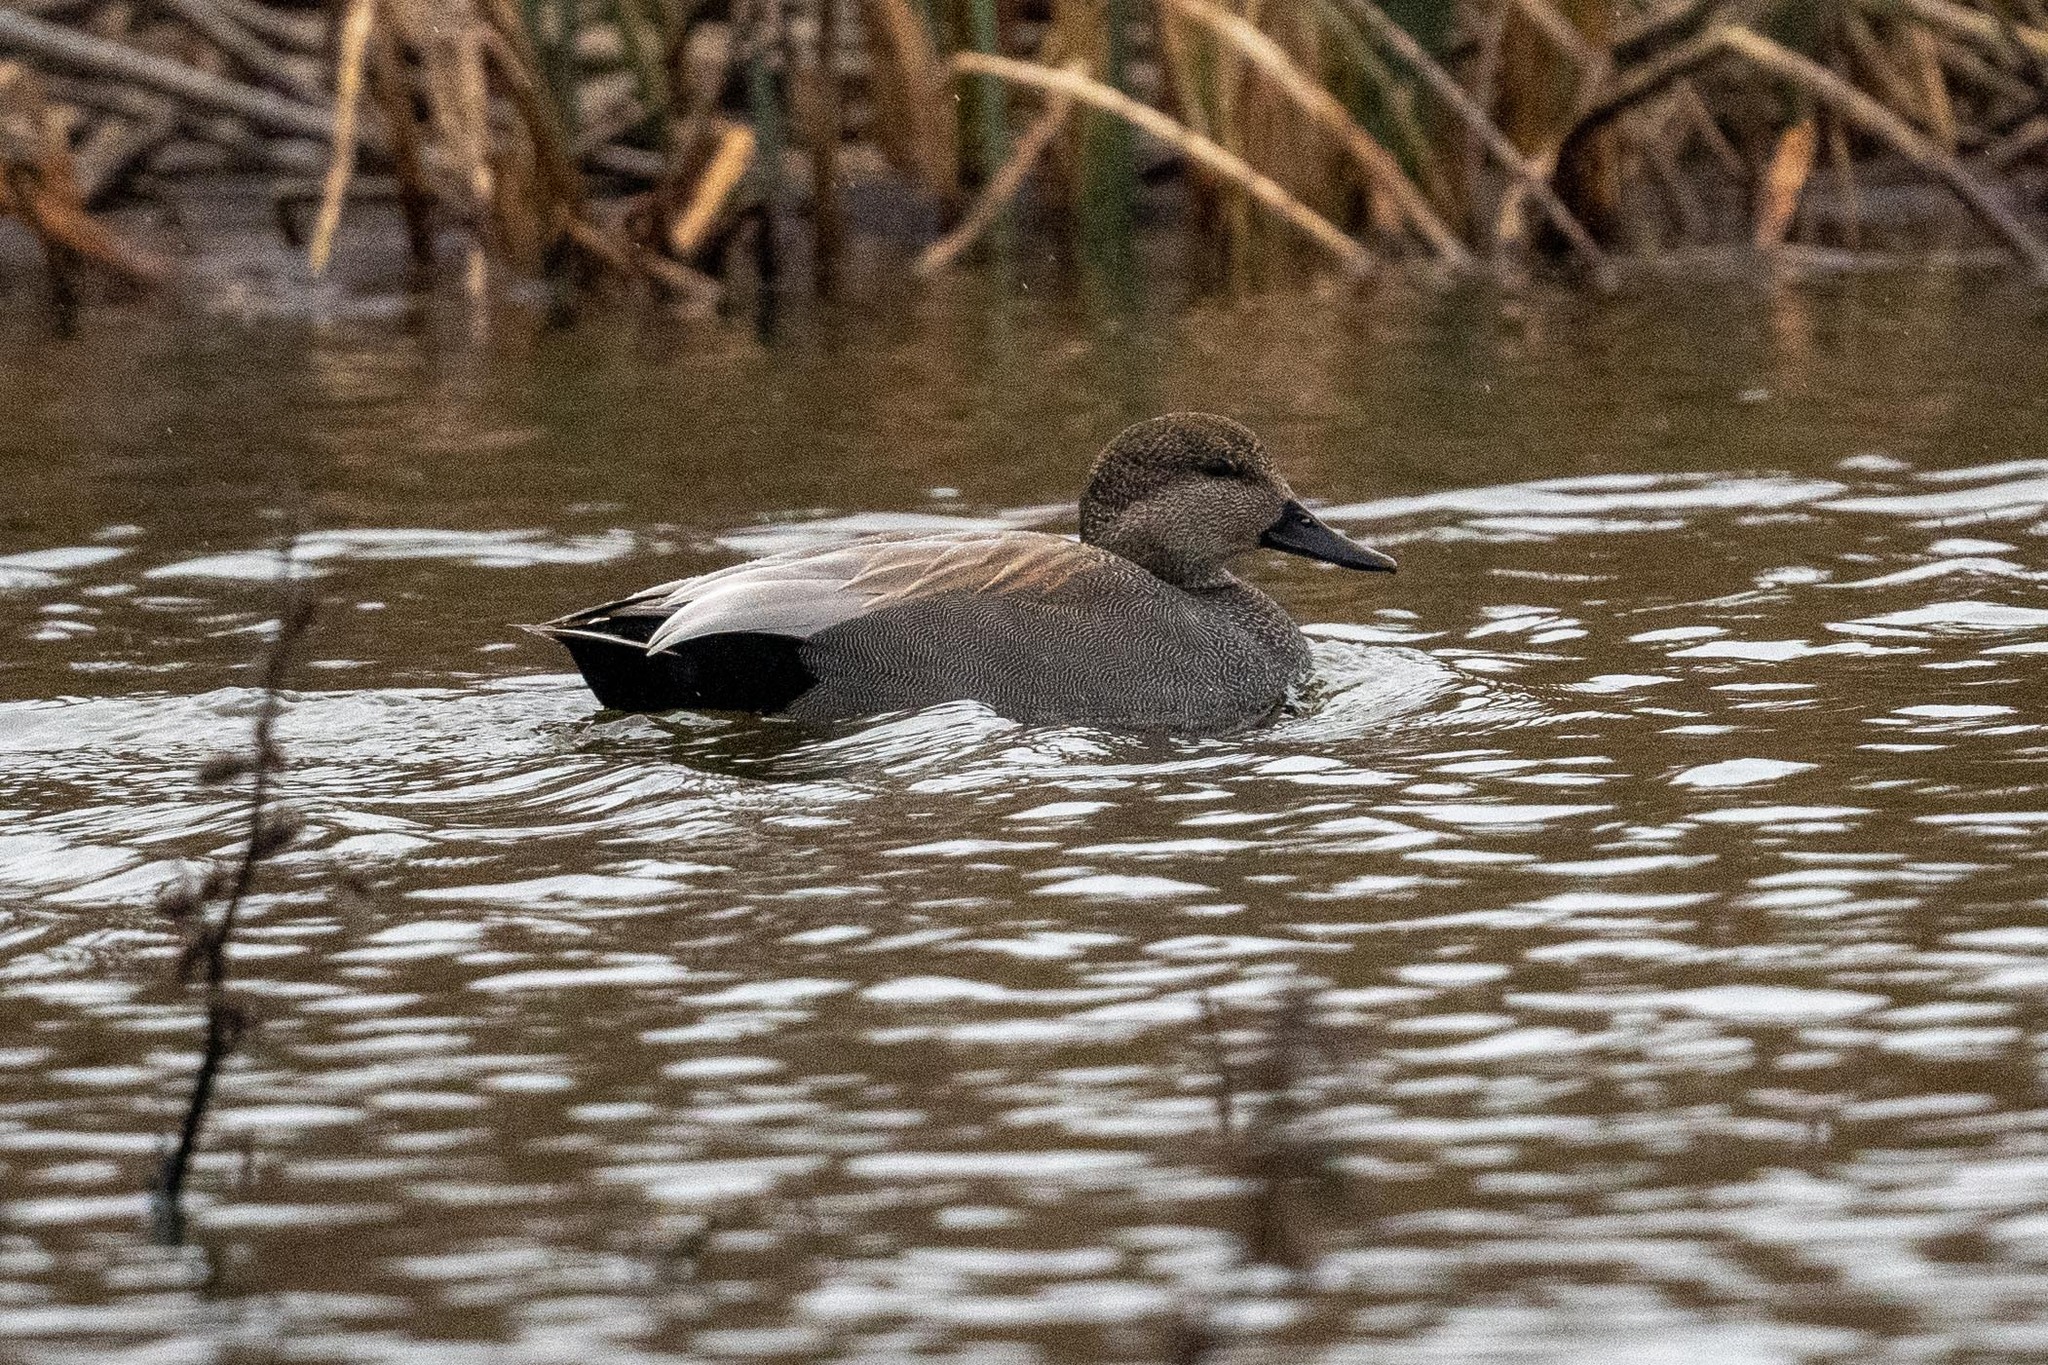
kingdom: Animalia
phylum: Chordata
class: Aves
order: Anseriformes
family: Anatidae
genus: Mareca
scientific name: Mareca strepera
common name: Gadwall
